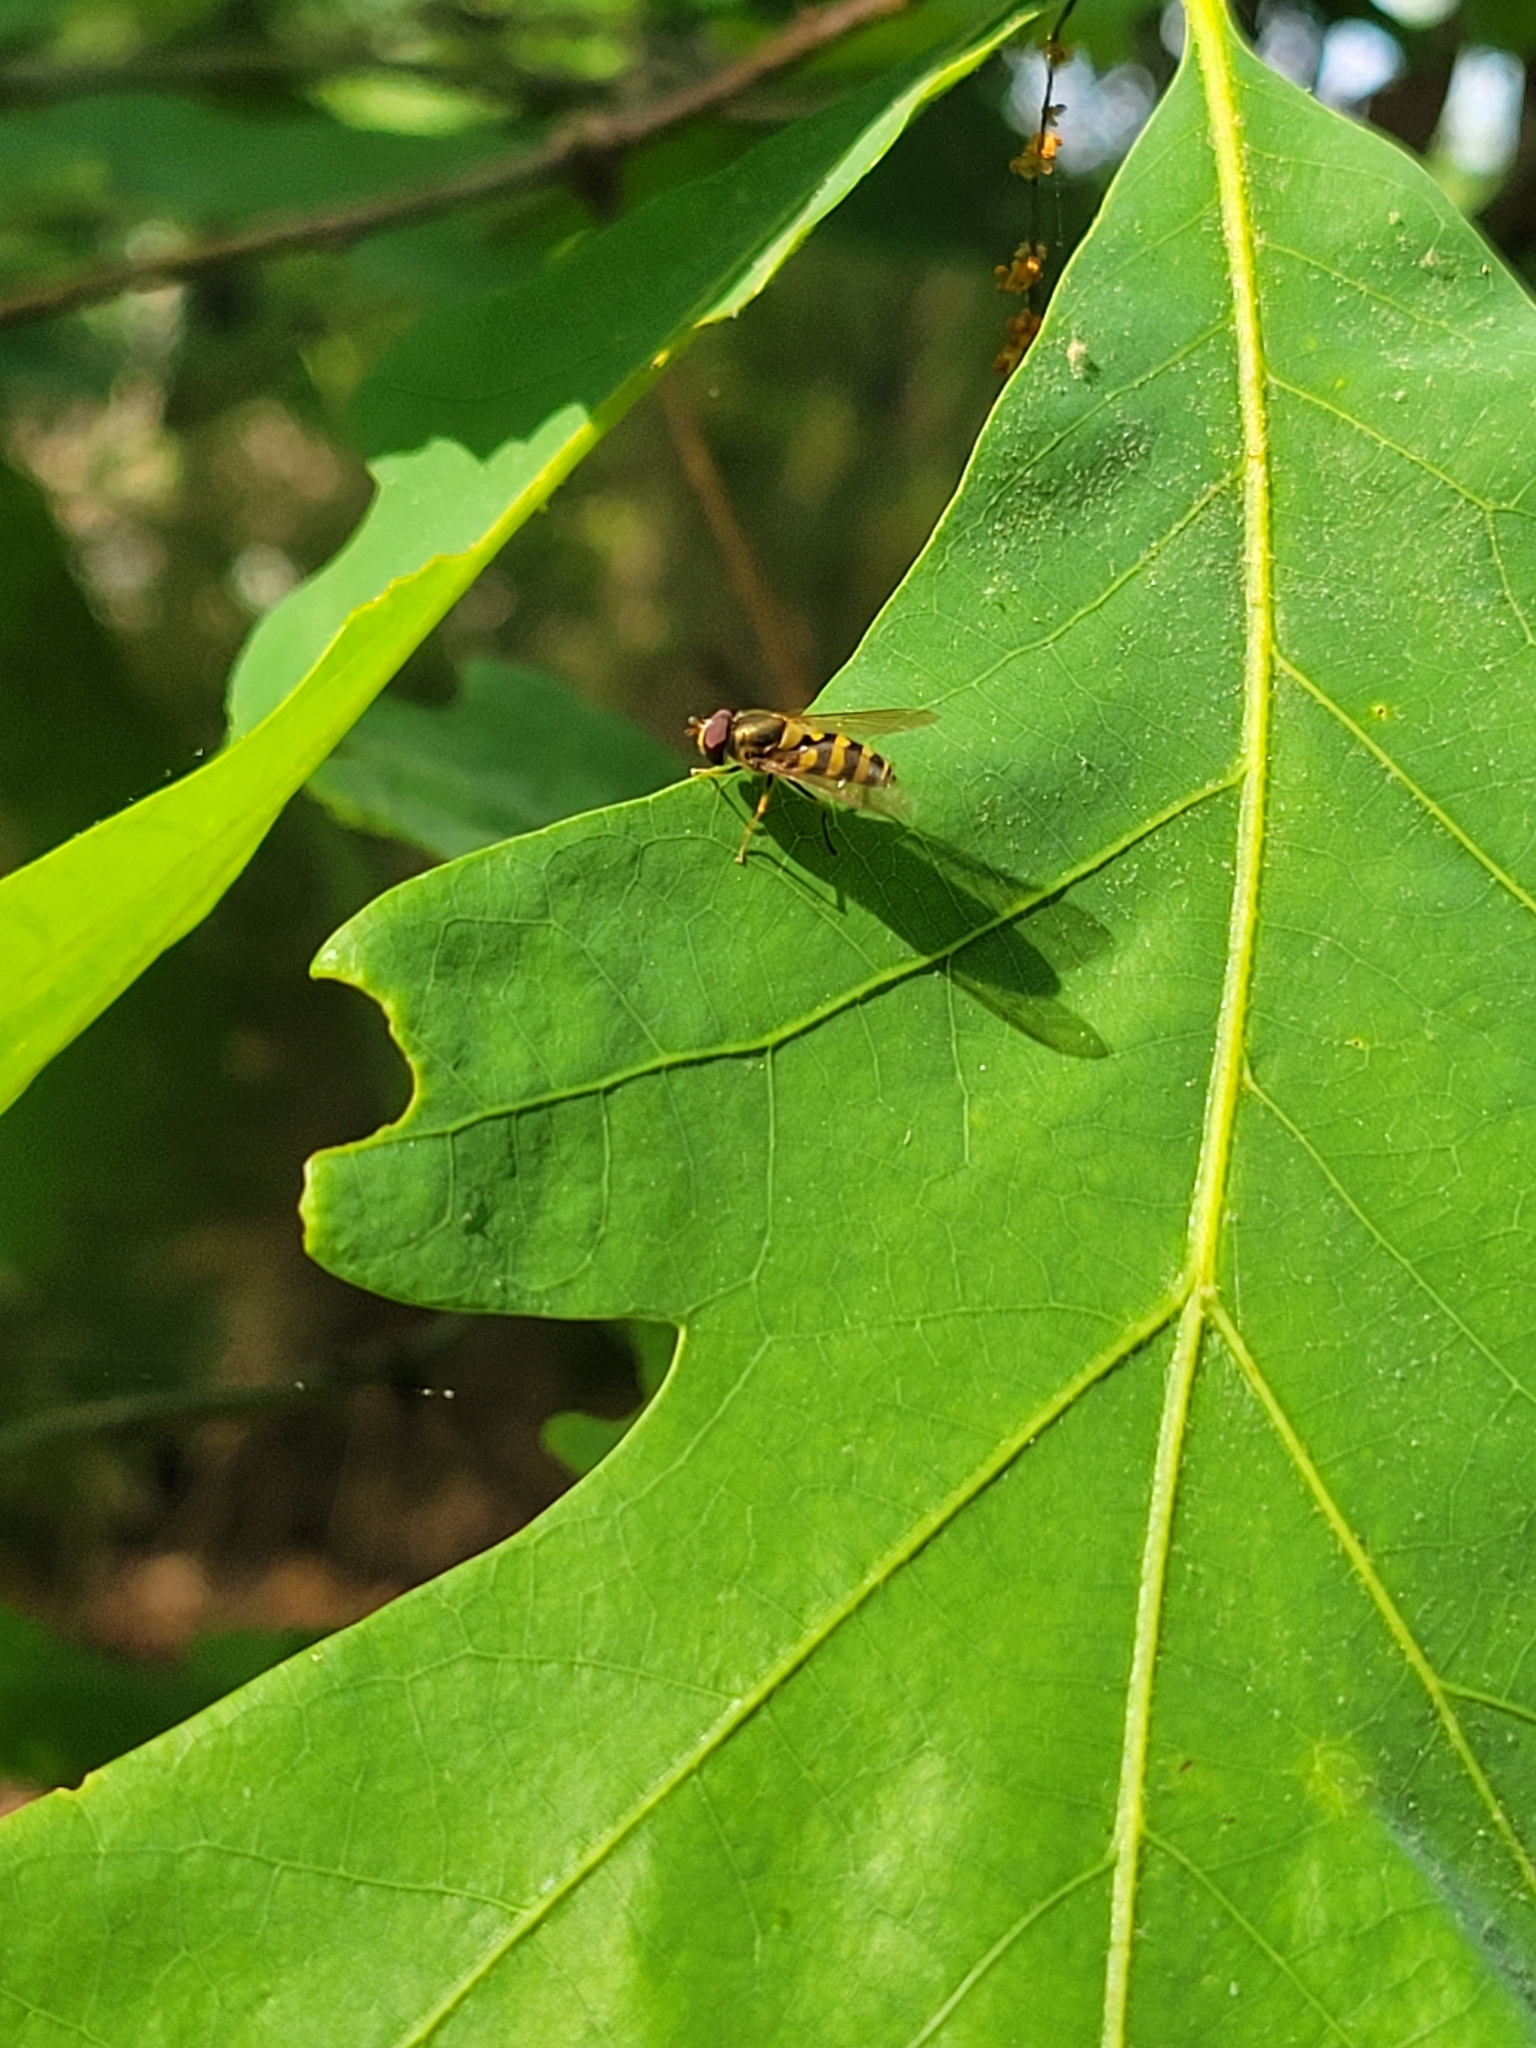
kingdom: Animalia
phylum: Arthropoda
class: Insecta
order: Diptera
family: Syrphidae
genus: Syrphus
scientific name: Syrphus
